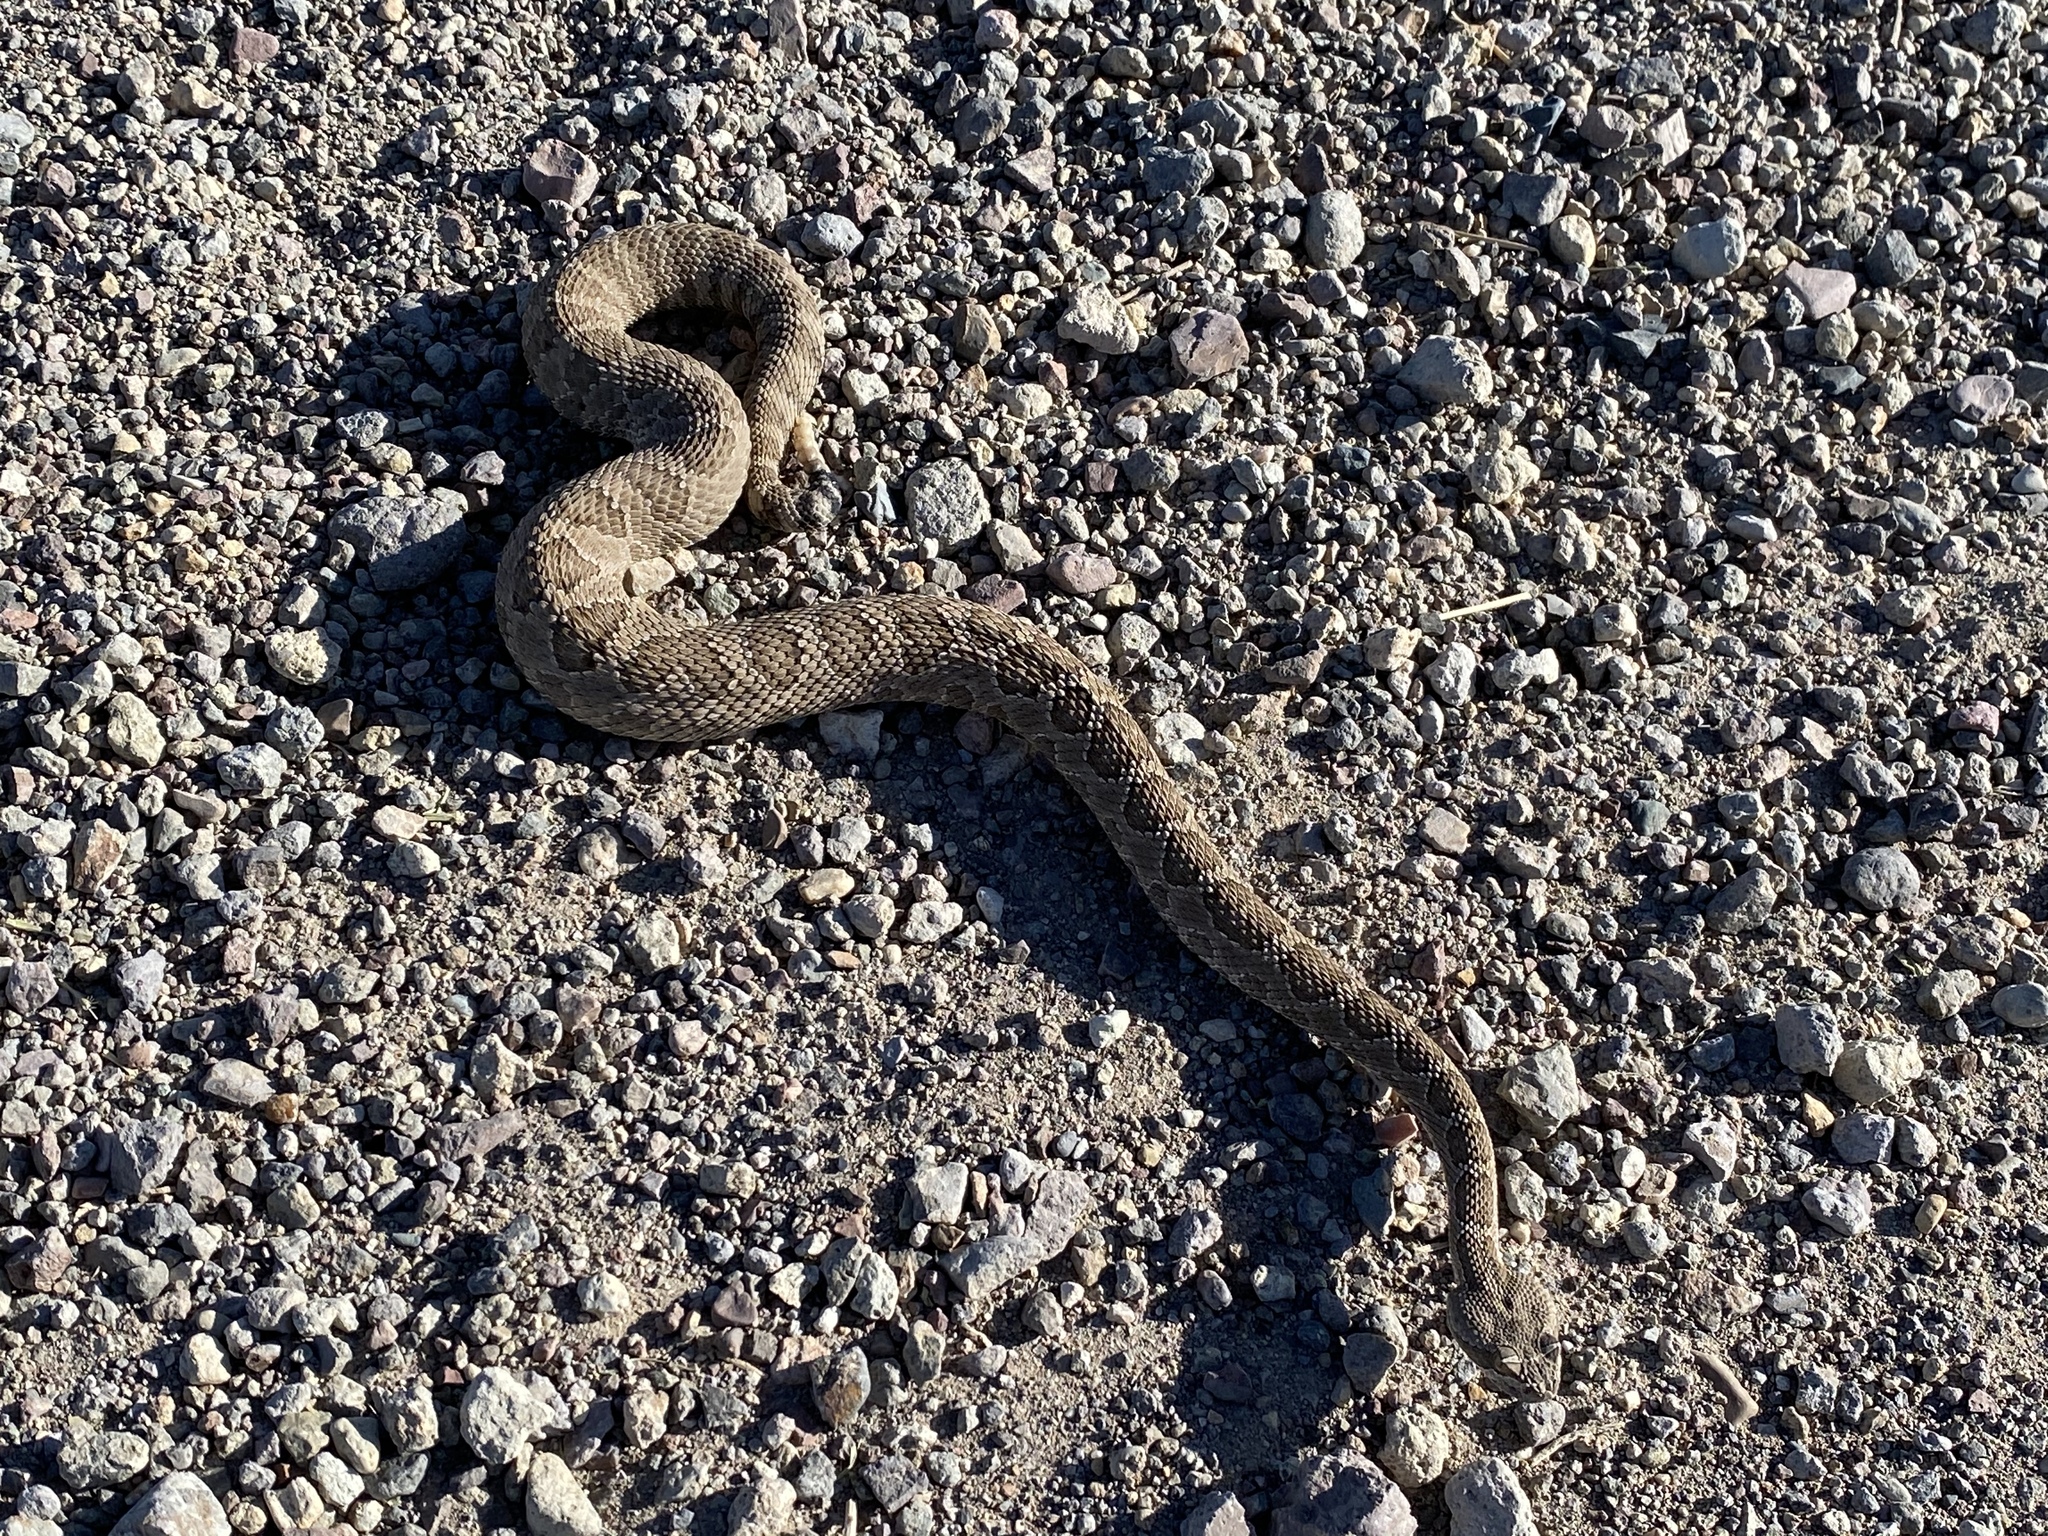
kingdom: Animalia
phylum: Chordata
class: Squamata
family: Viperidae
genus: Crotalus
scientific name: Crotalus oreganus
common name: Abyssus
